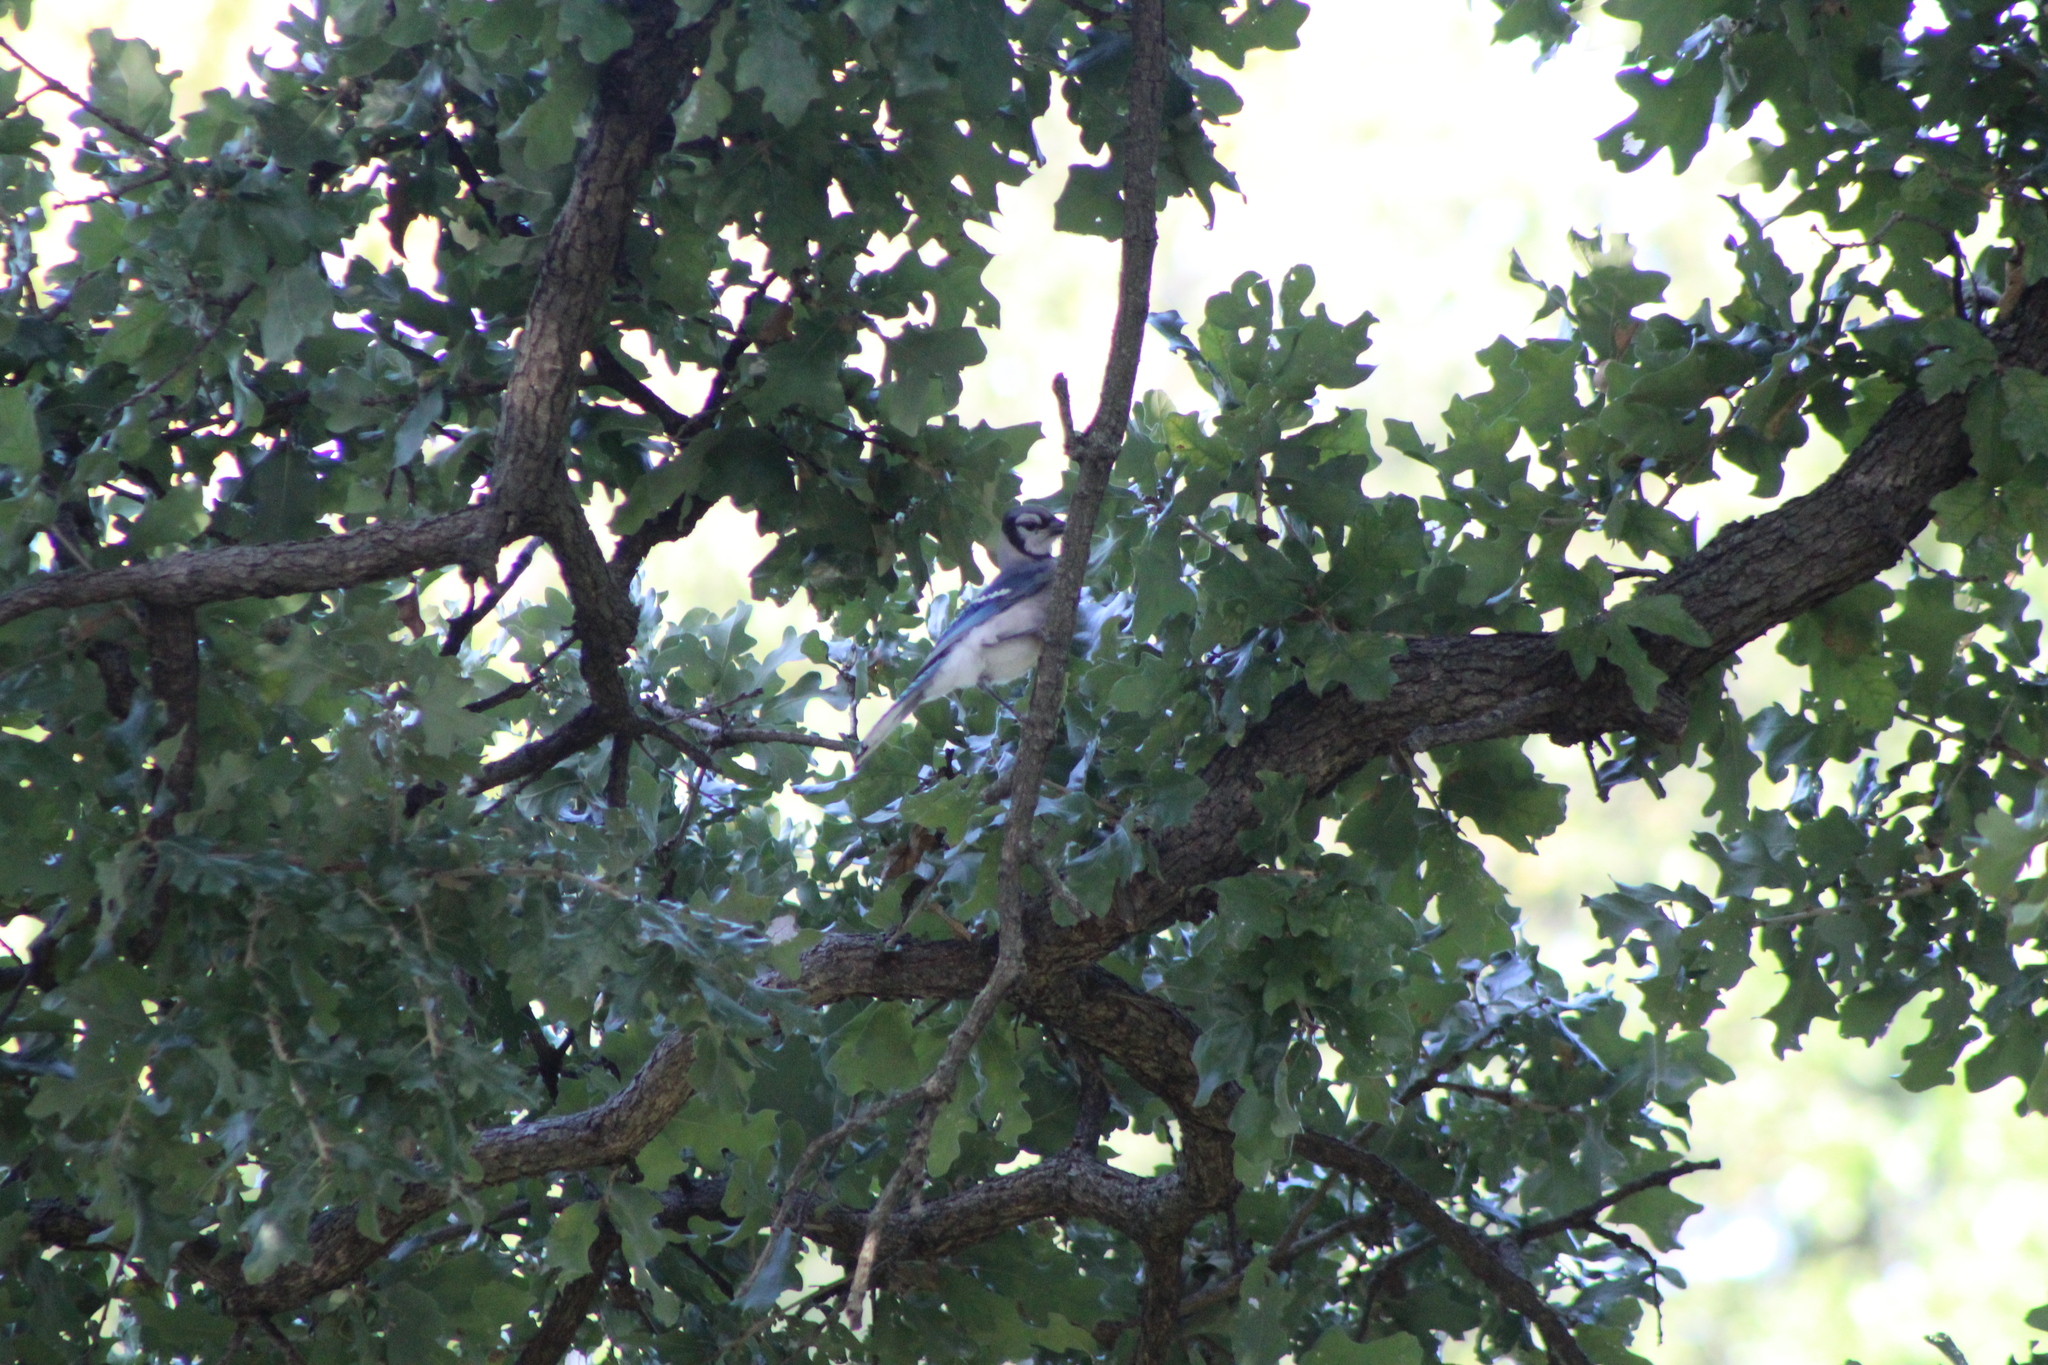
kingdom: Animalia
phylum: Chordata
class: Aves
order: Passeriformes
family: Corvidae
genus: Cyanocitta
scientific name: Cyanocitta cristata
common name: Blue jay
